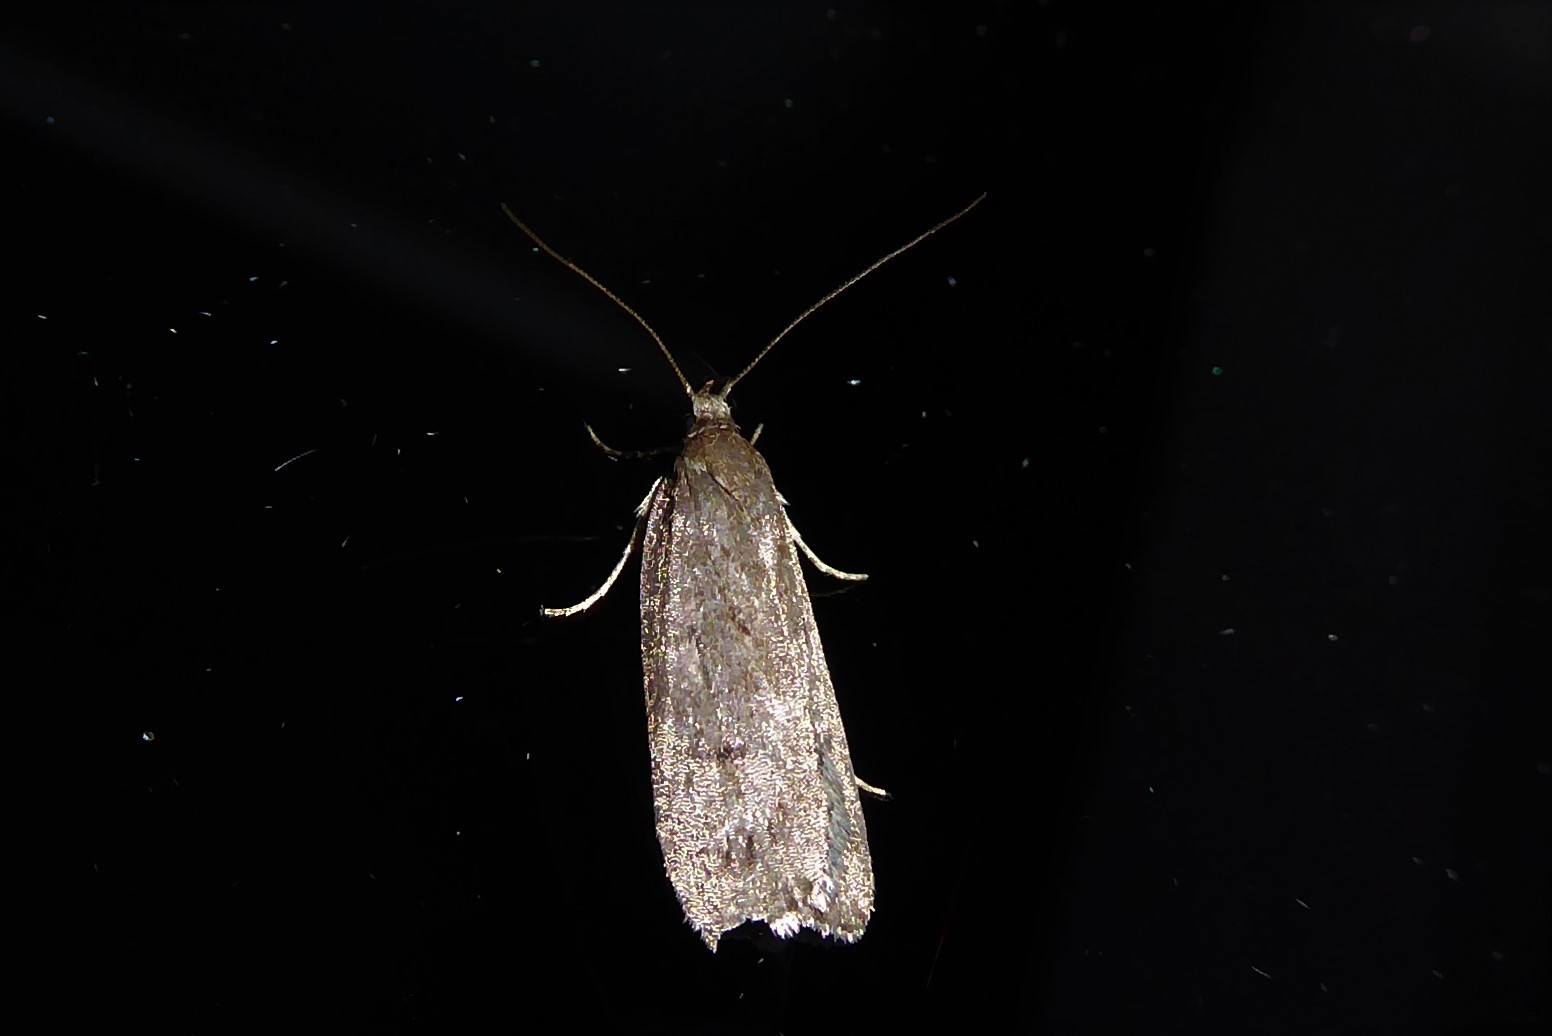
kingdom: Animalia
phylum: Arthropoda
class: Insecta
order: Lepidoptera
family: Depressariidae
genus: Phaeosaces
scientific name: Phaeosaces apocrypta
